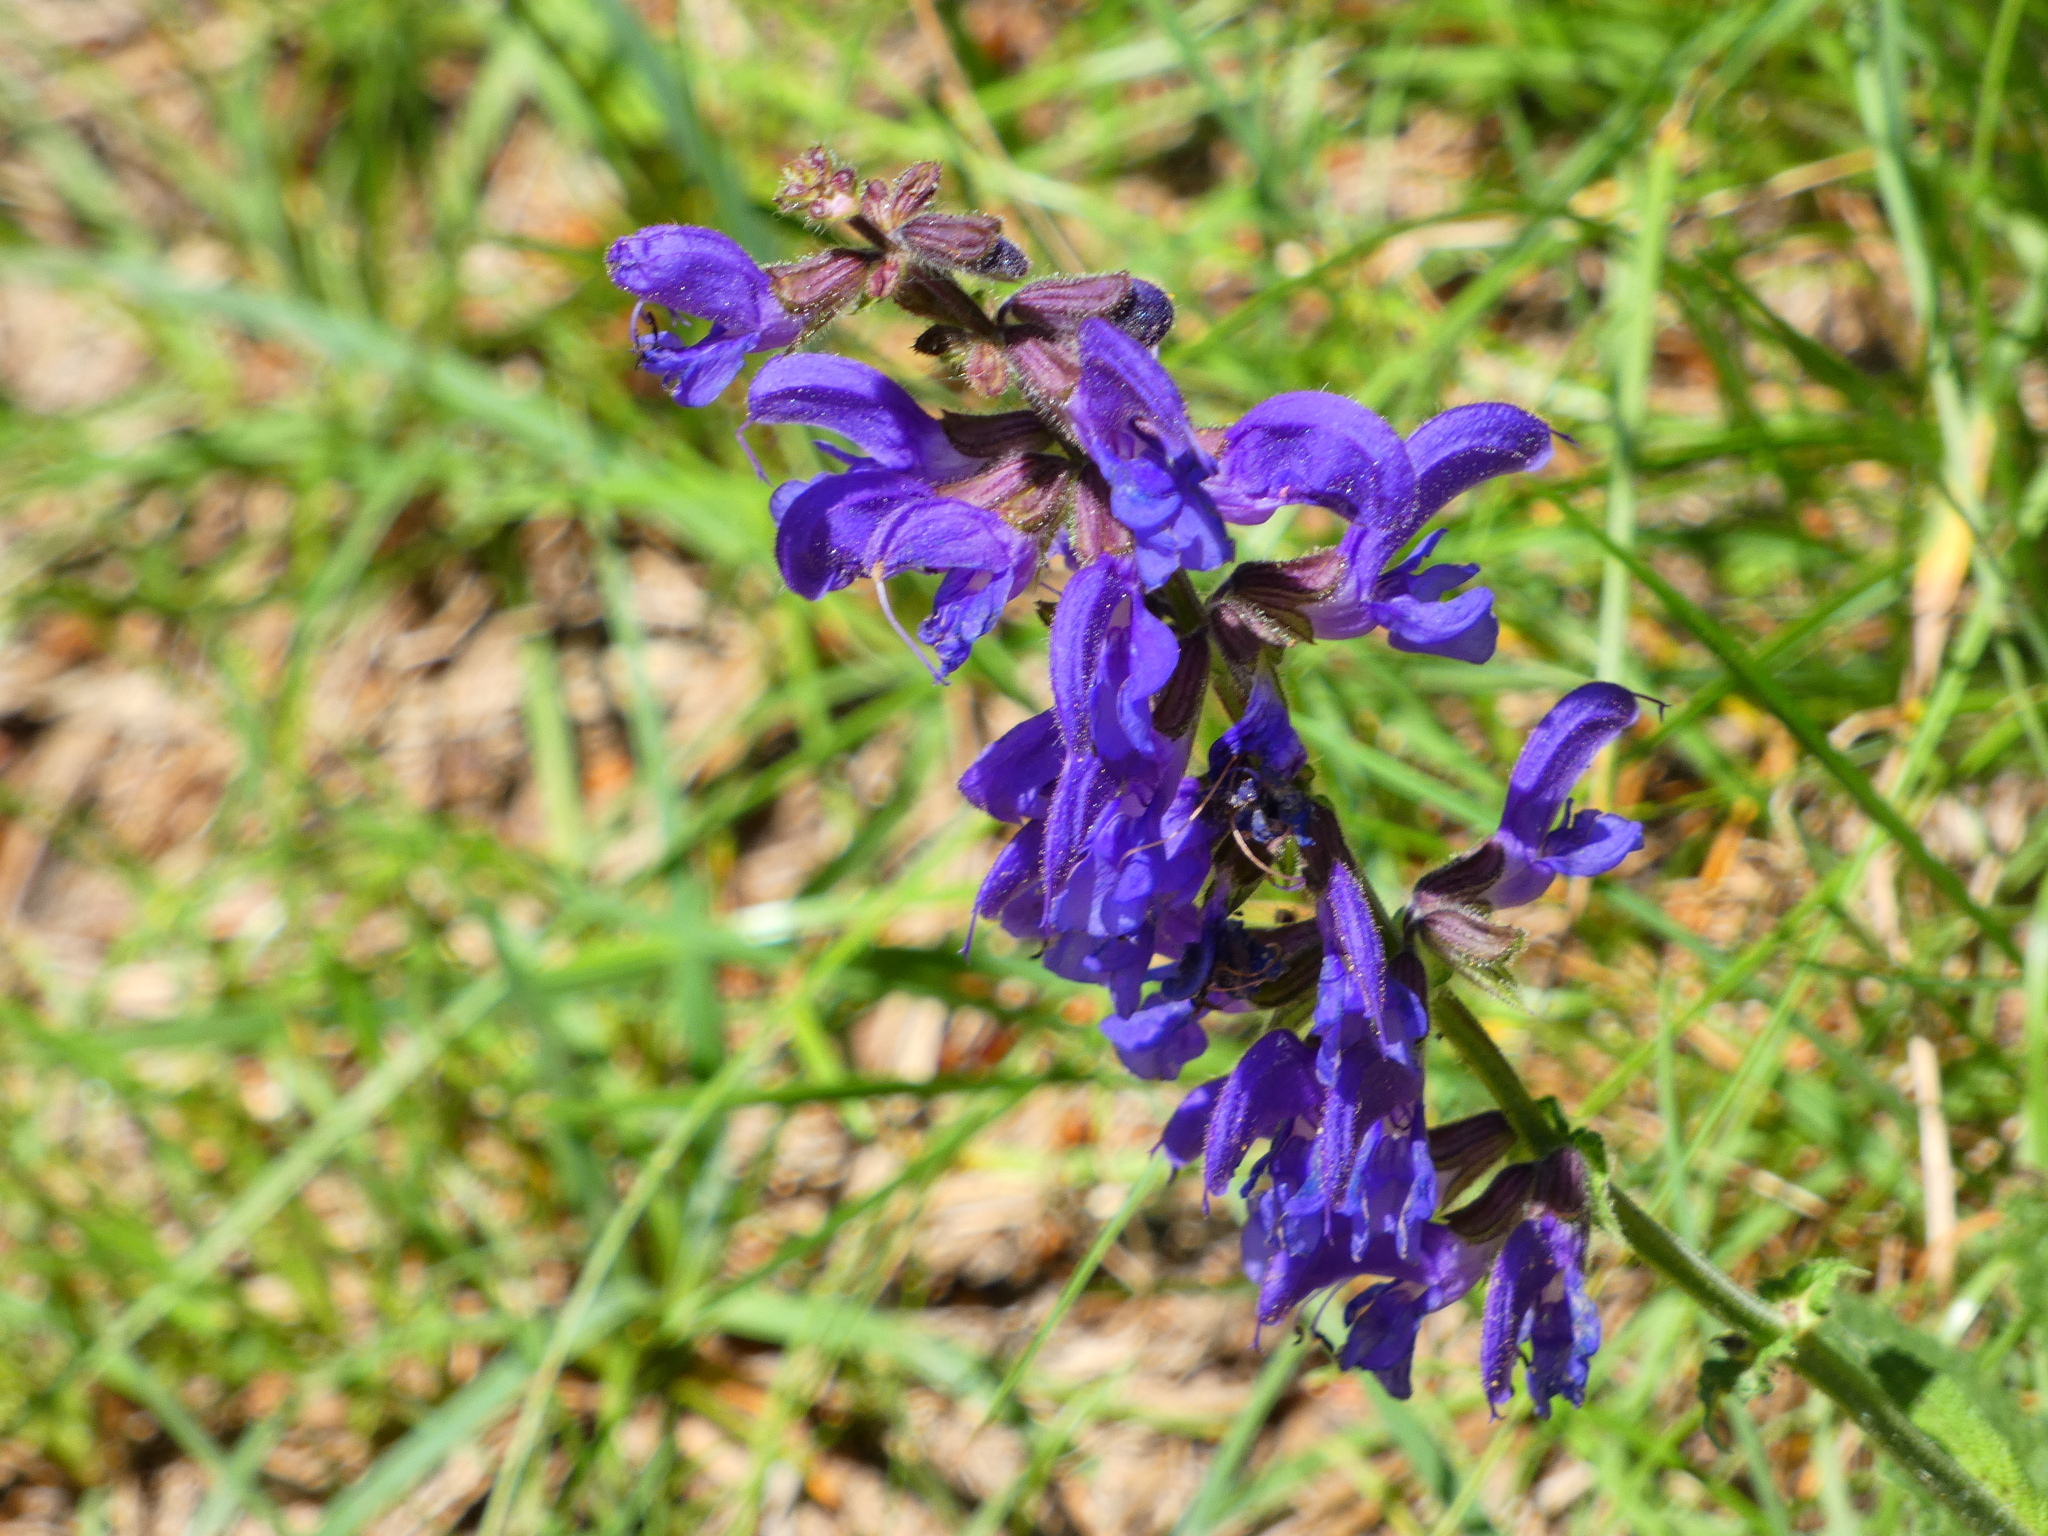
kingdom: Plantae
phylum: Tracheophyta
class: Magnoliopsida
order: Lamiales
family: Lamiaceae
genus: Salvia
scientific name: Salvia pratensis
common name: Meadow sage
